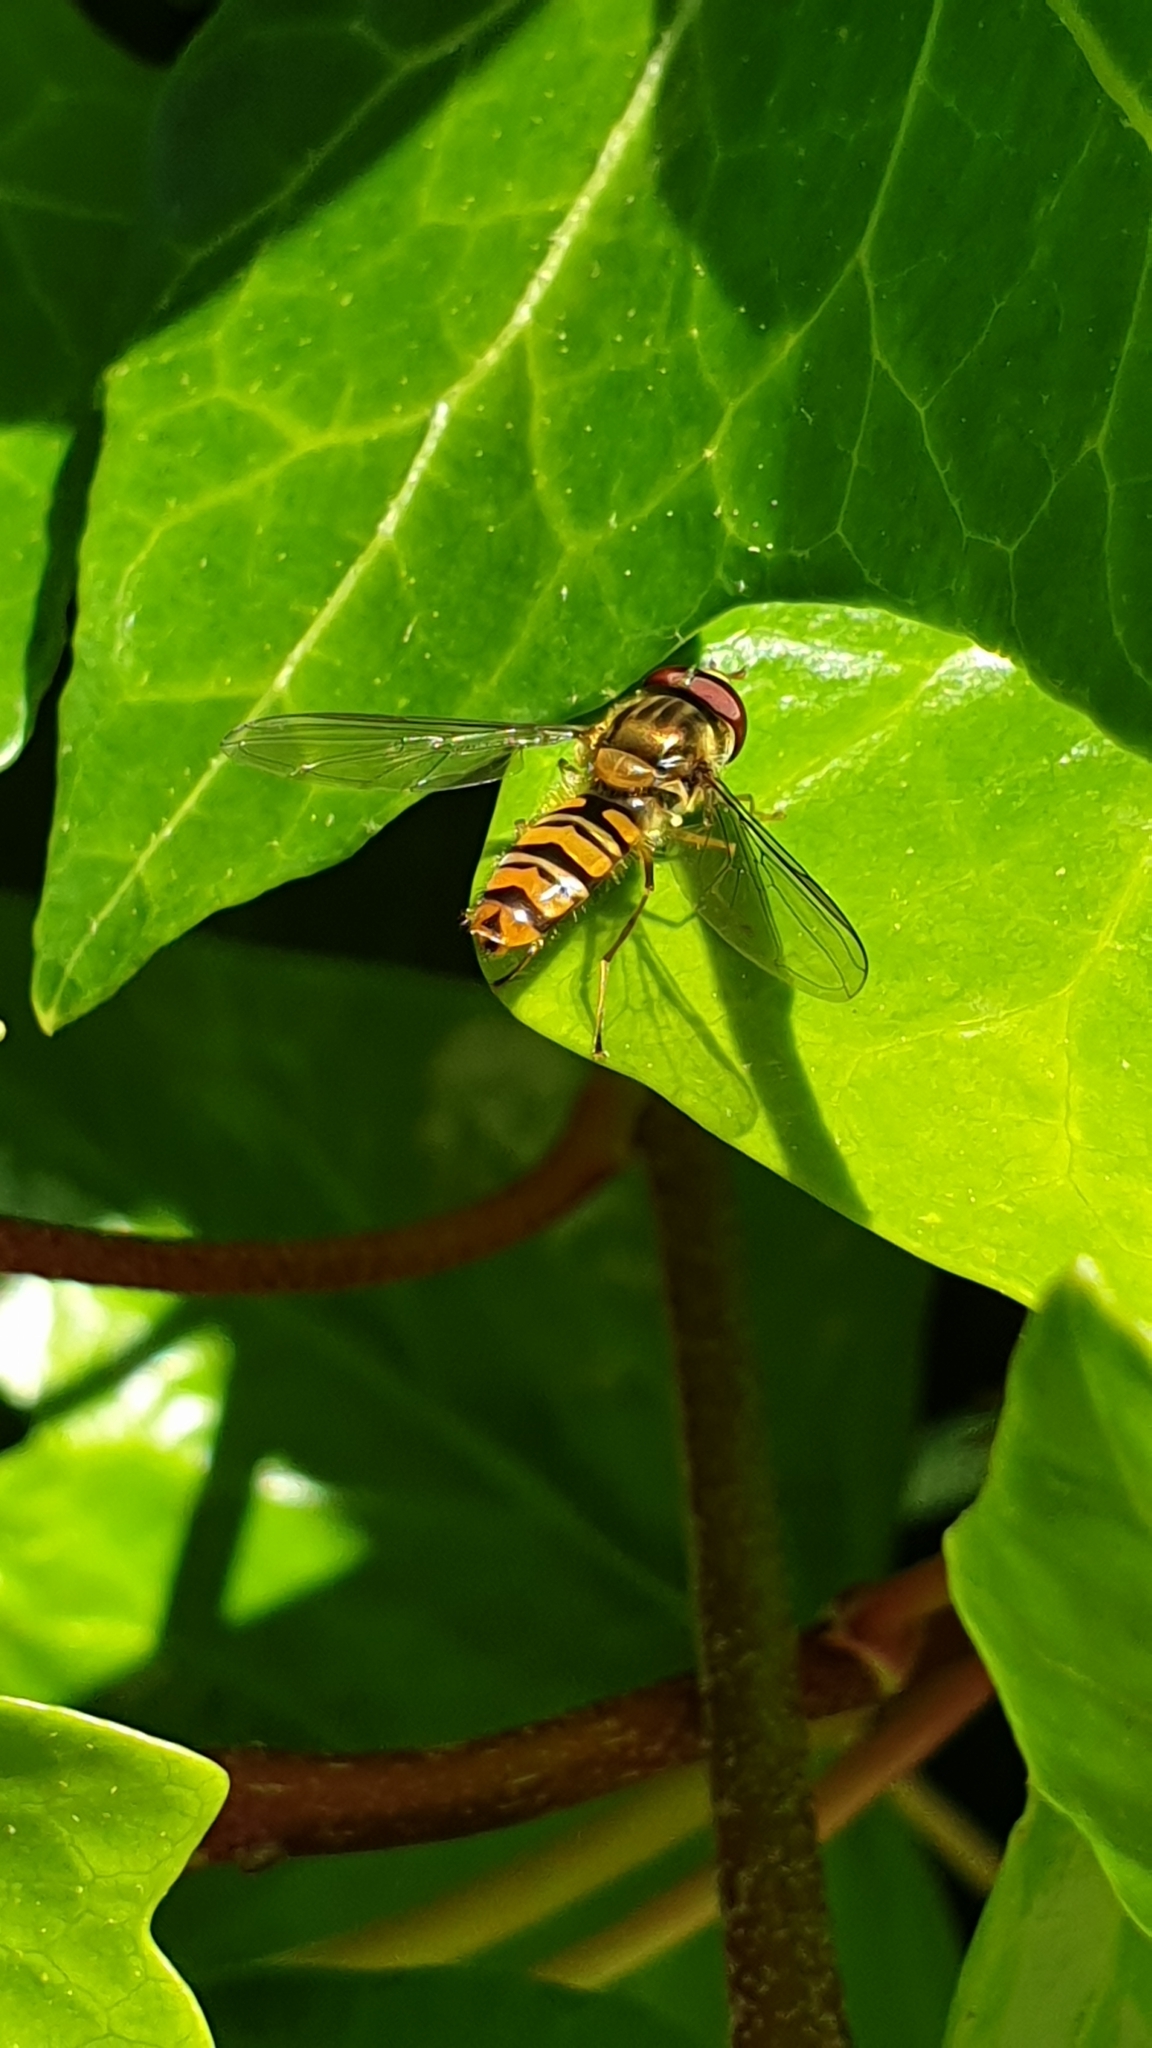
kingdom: Animalia
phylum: Arthropoda
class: Insecta
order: Diptera
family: Syrphidae
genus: Episyrphus
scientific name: Episyrphus balteatus
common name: Marmalade hoverfly
